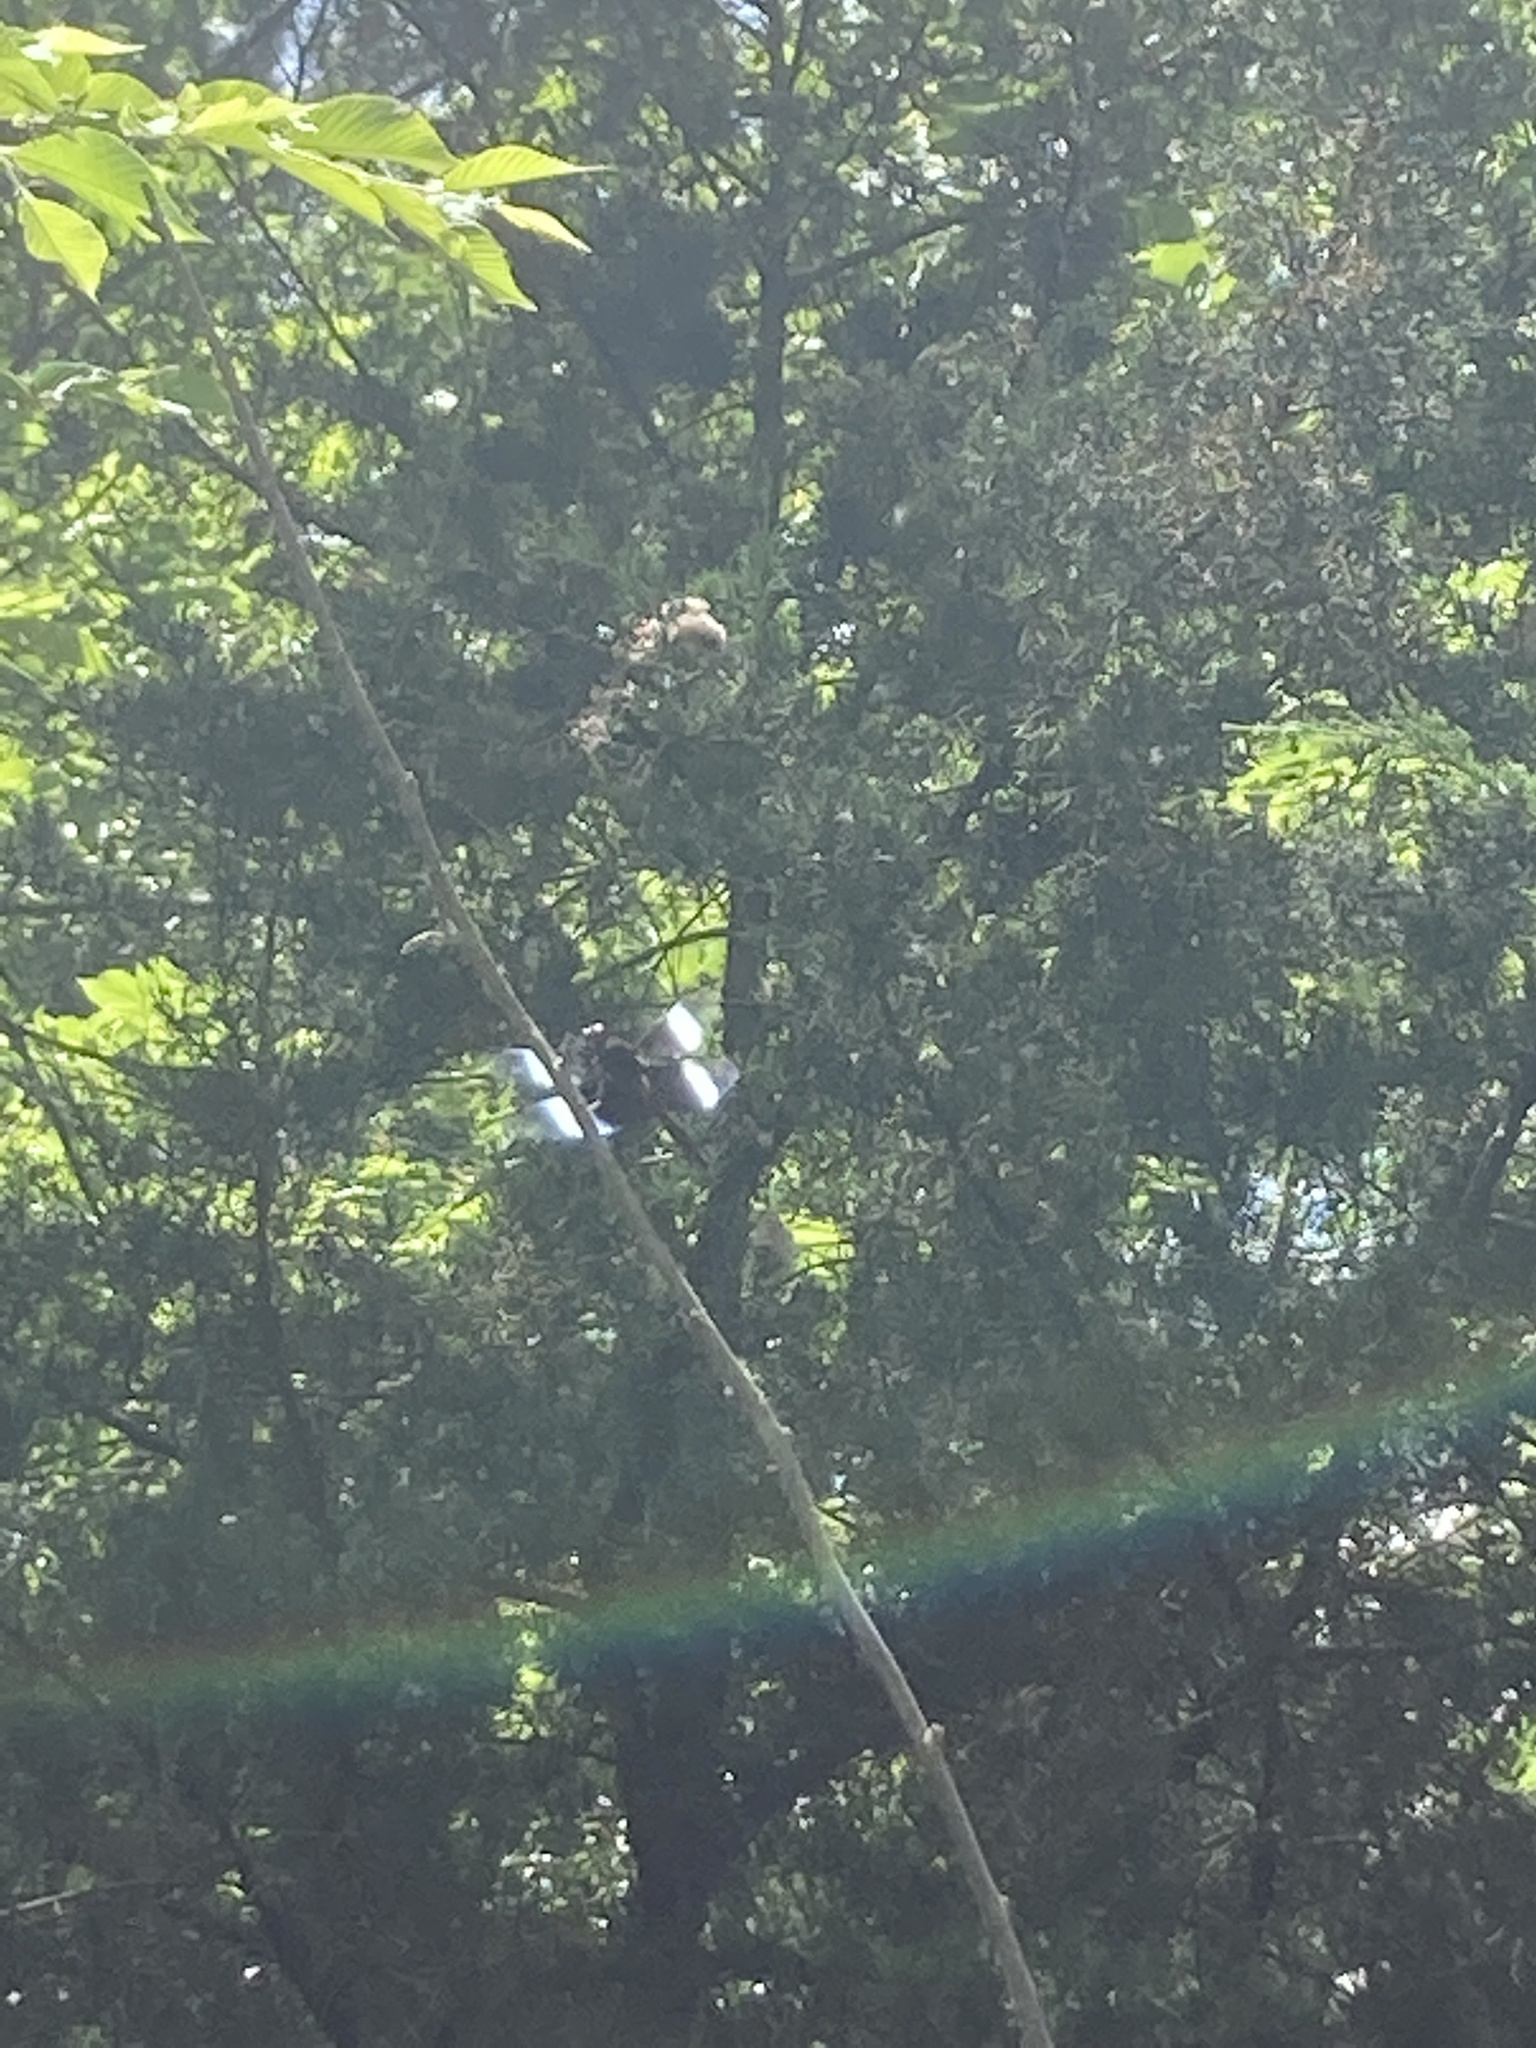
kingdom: Animalia
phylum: Arthropoda
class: Insecta
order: Odonata
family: Libellulidae
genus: Libellula
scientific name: Libellula luctuosa
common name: Widow skimmer
